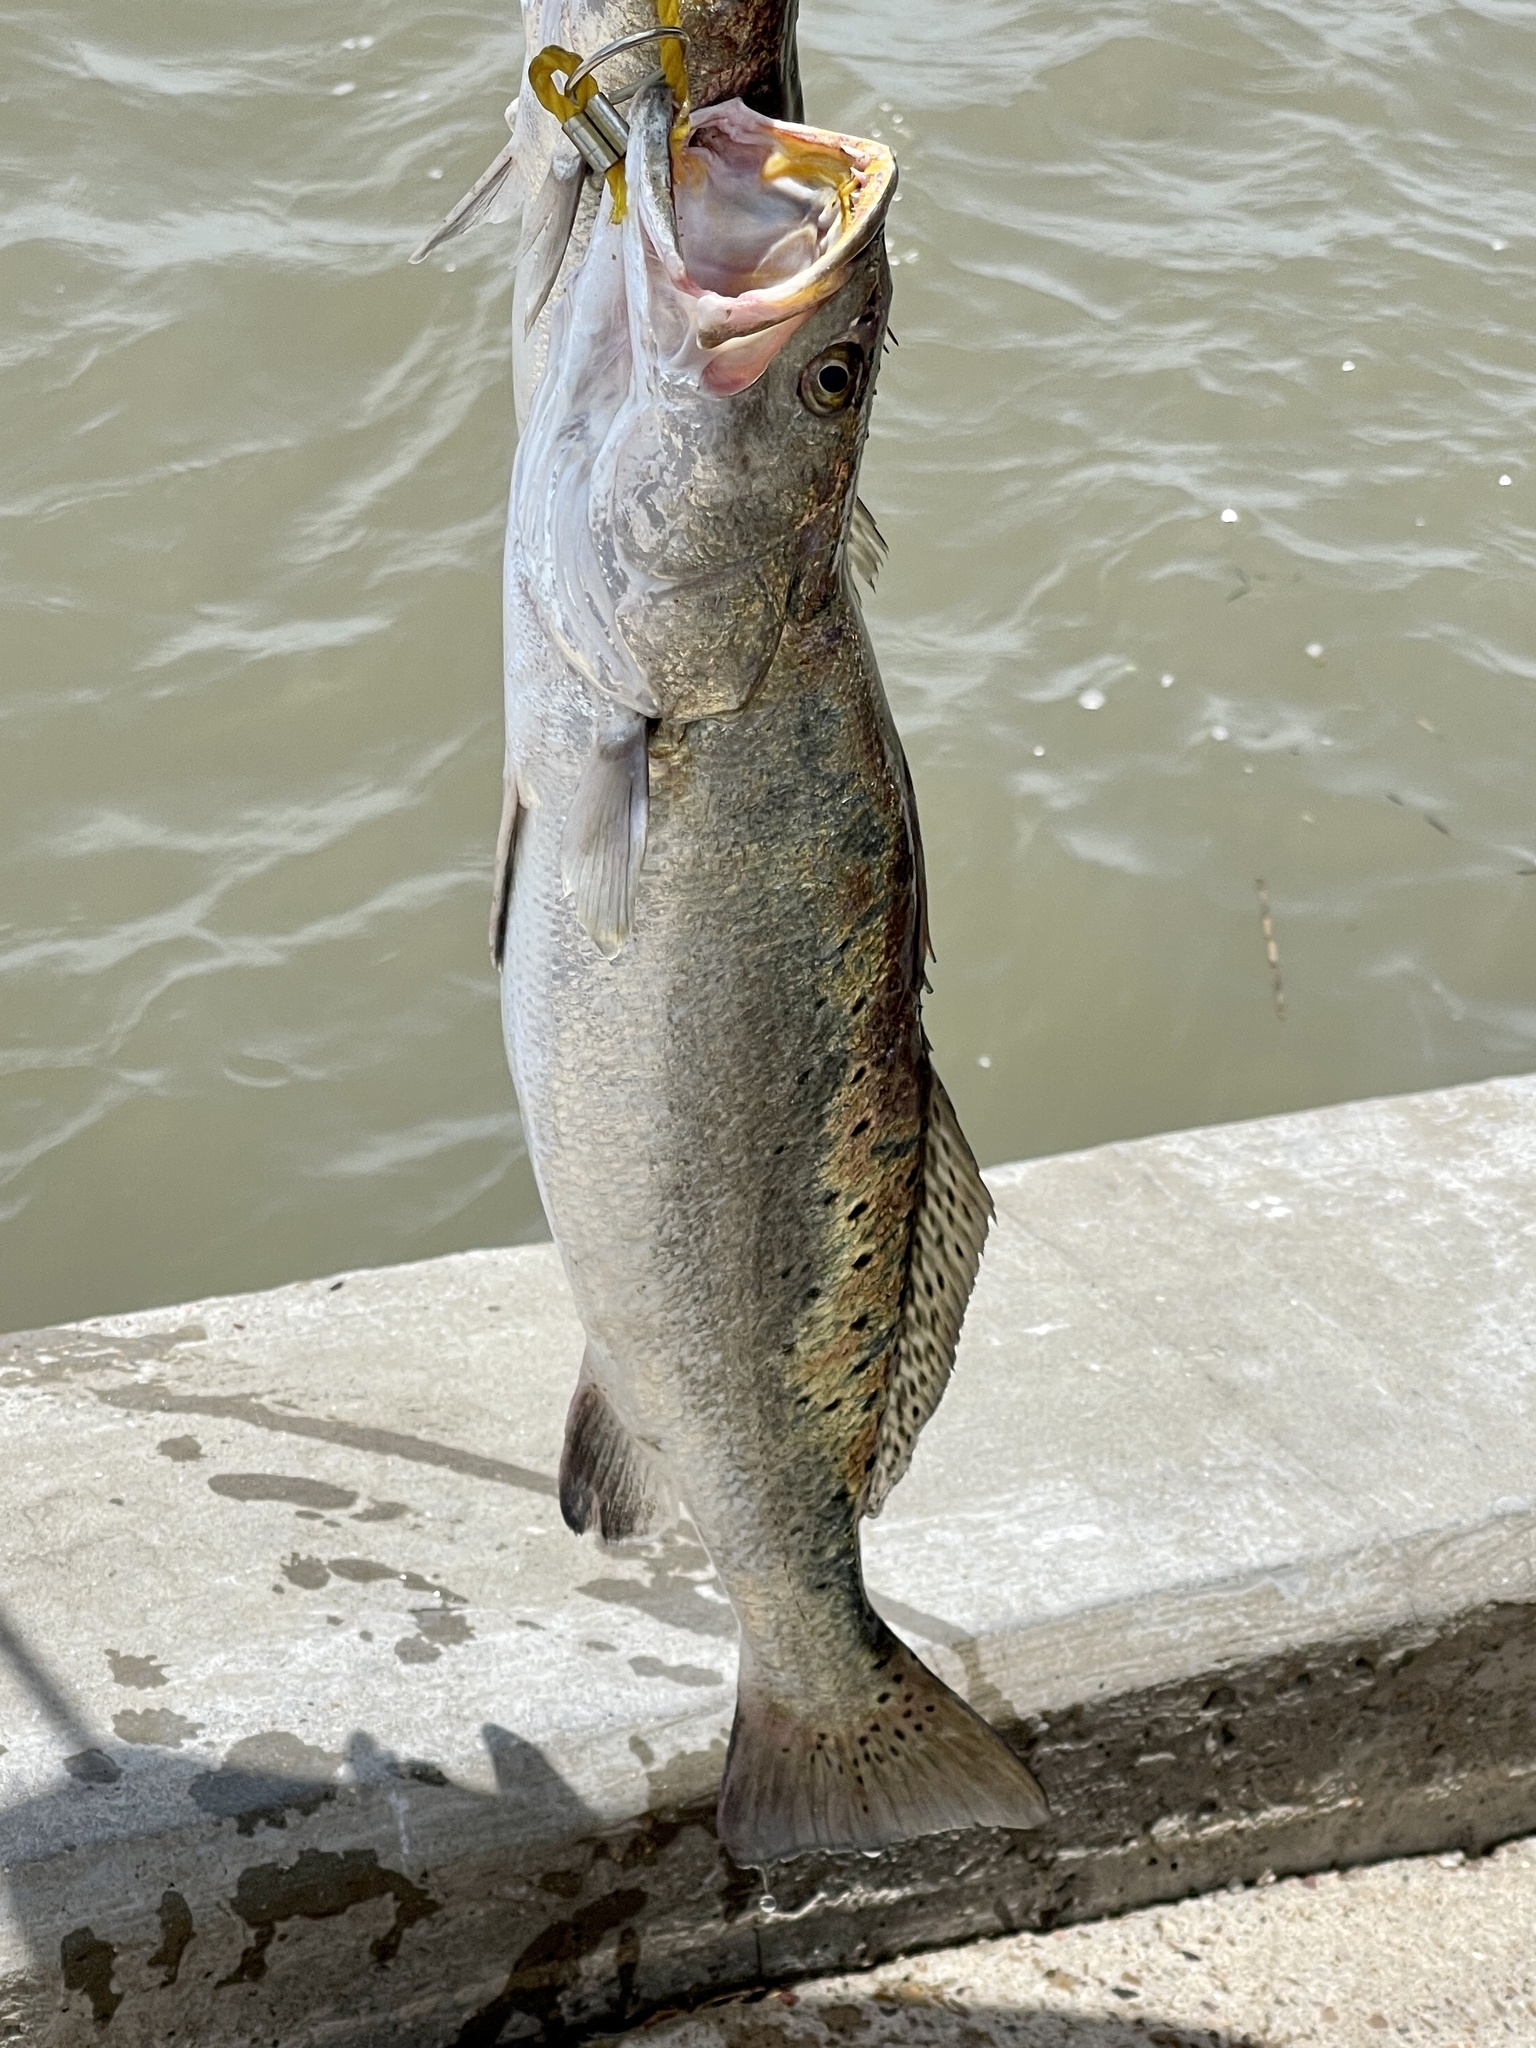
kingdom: Animalia
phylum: Chordata
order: Perciformes
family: Sciaenidae
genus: Cynoscion
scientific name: Cynoscion nebulosus
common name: Spotted seatrout
